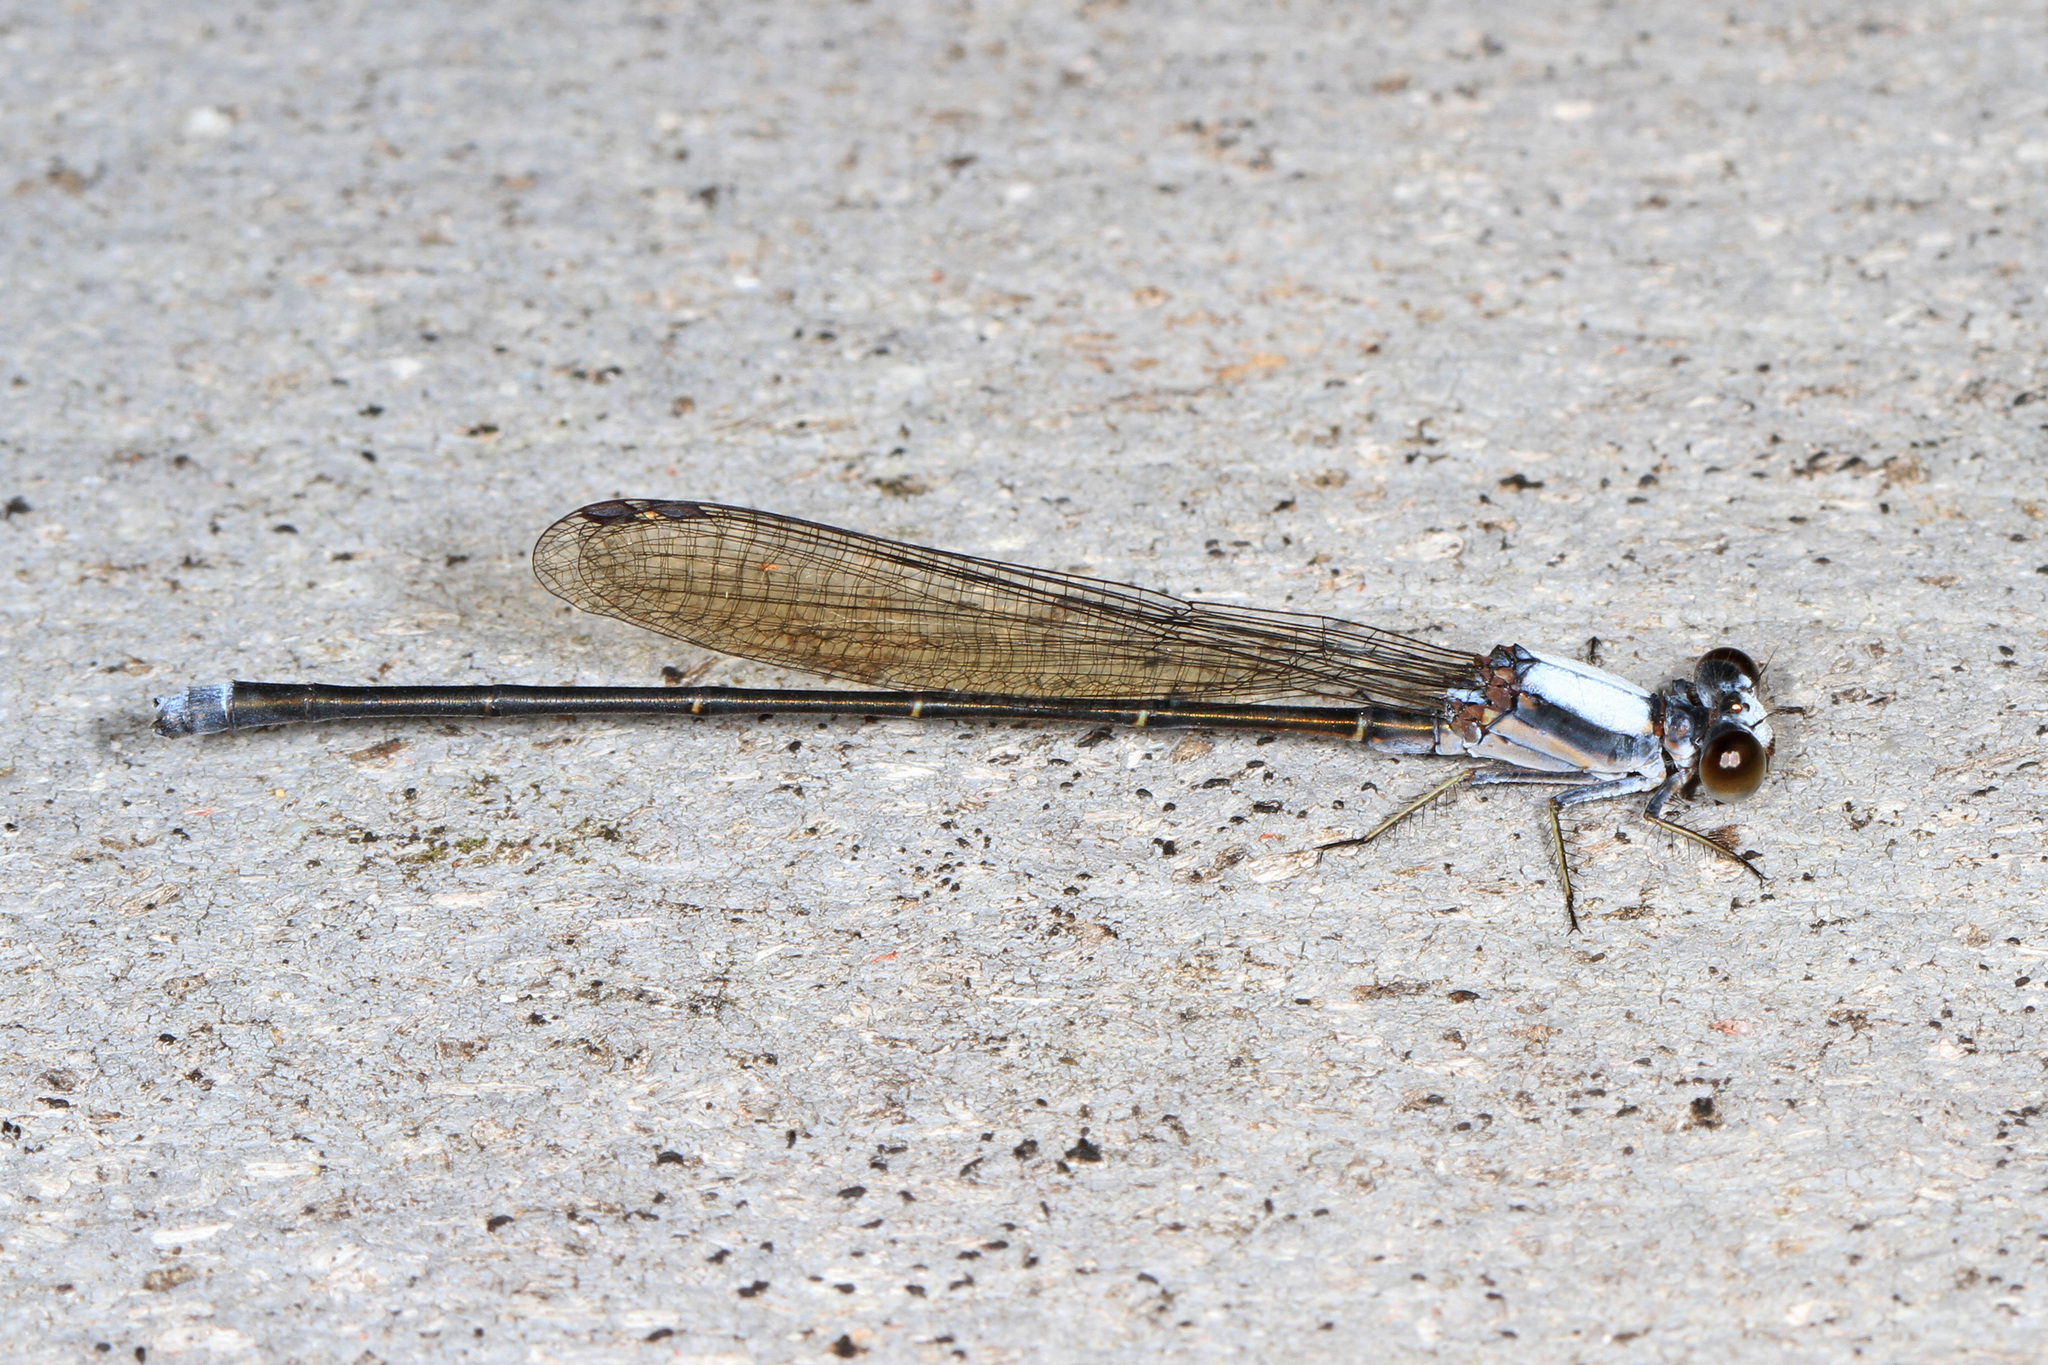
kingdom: Animalia
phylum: Arthropoda
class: Insecta
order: Odonata
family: Coenagrionidae
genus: Argia
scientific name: Argia moesta
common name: Powdered dancer
